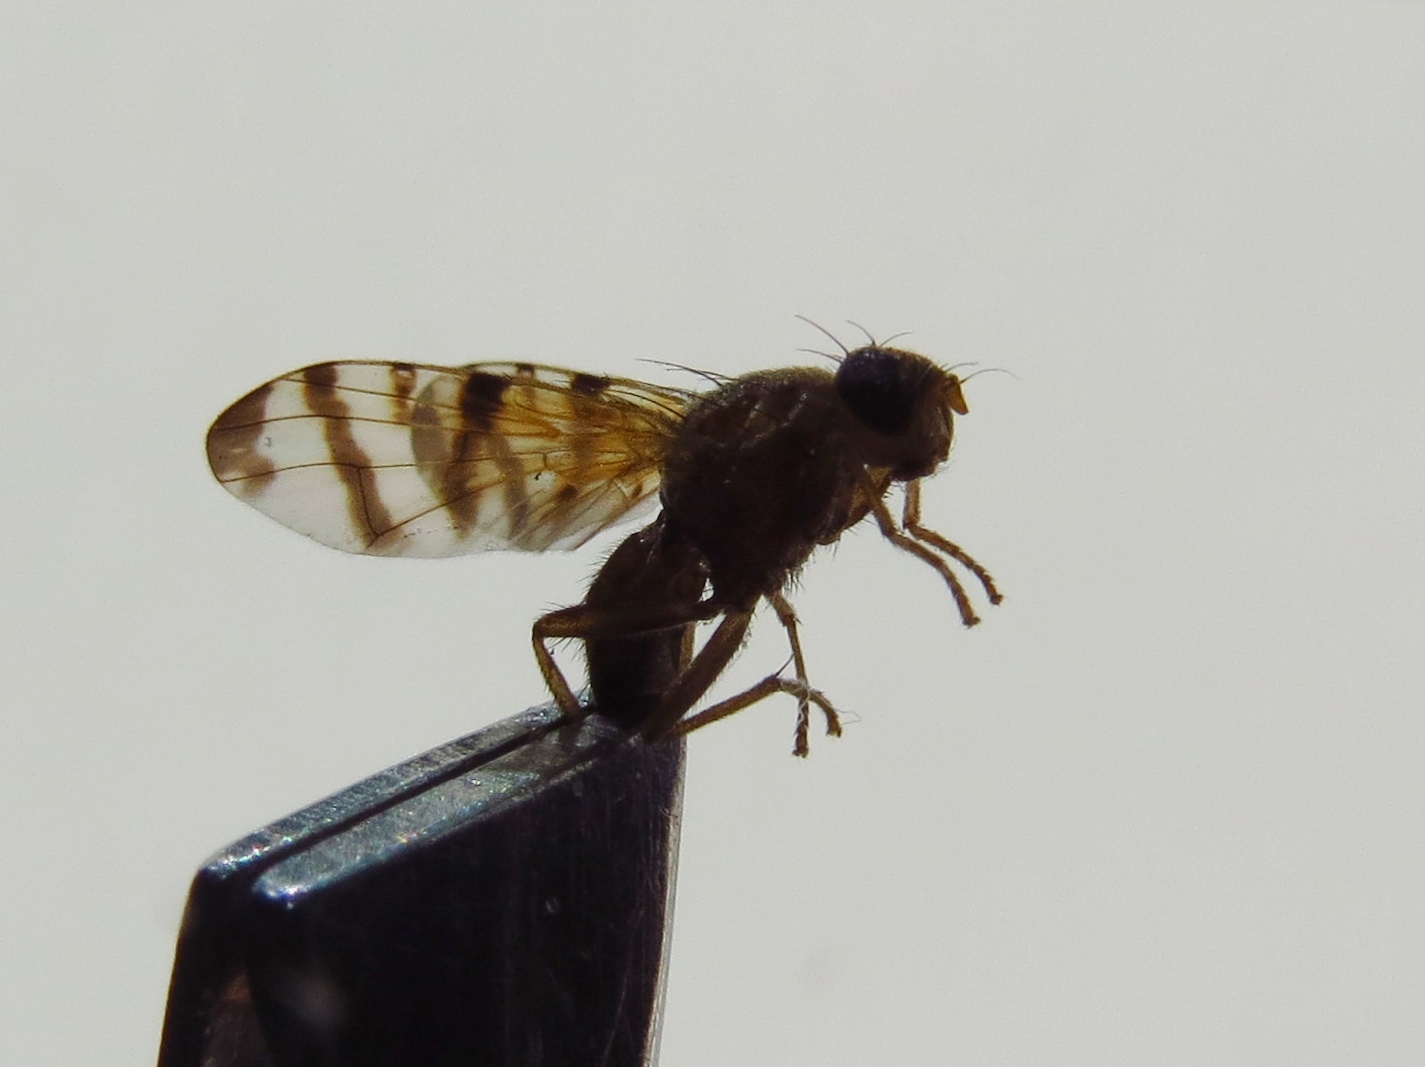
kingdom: Animalia
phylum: Arthropoda
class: Insecta
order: Diptera
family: Tephritidae
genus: Rhagoletis
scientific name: Rhagoletis alternata
